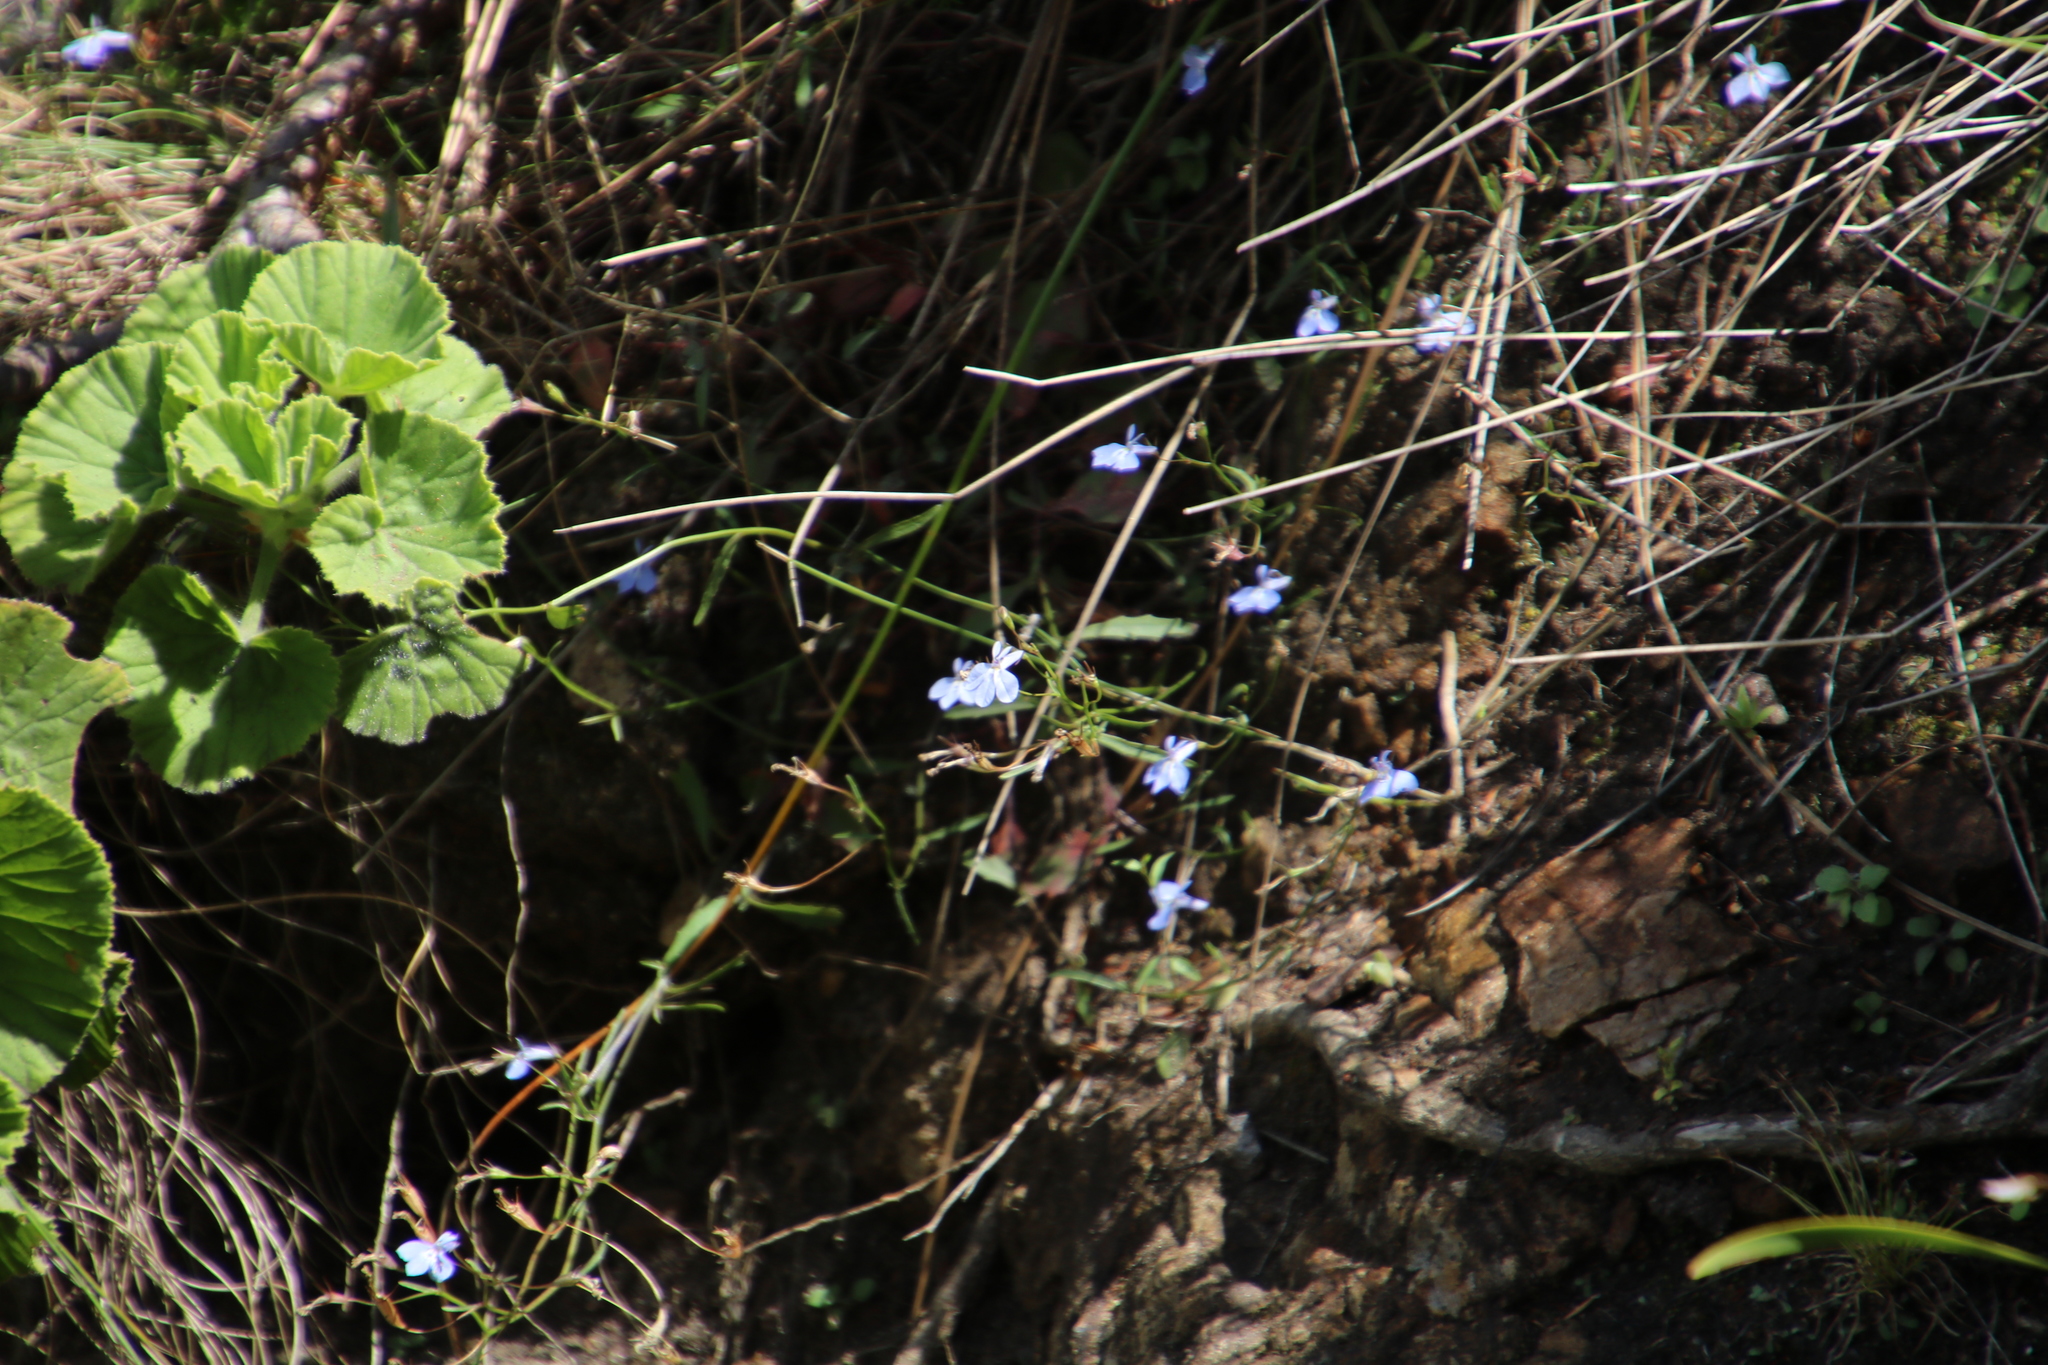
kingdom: Plantae
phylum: Tracheophyta
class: Magnoliopsida
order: Asterales
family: Campanulaceae
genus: Lobelia
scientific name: Lobelia erinus
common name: Edging lobelia
